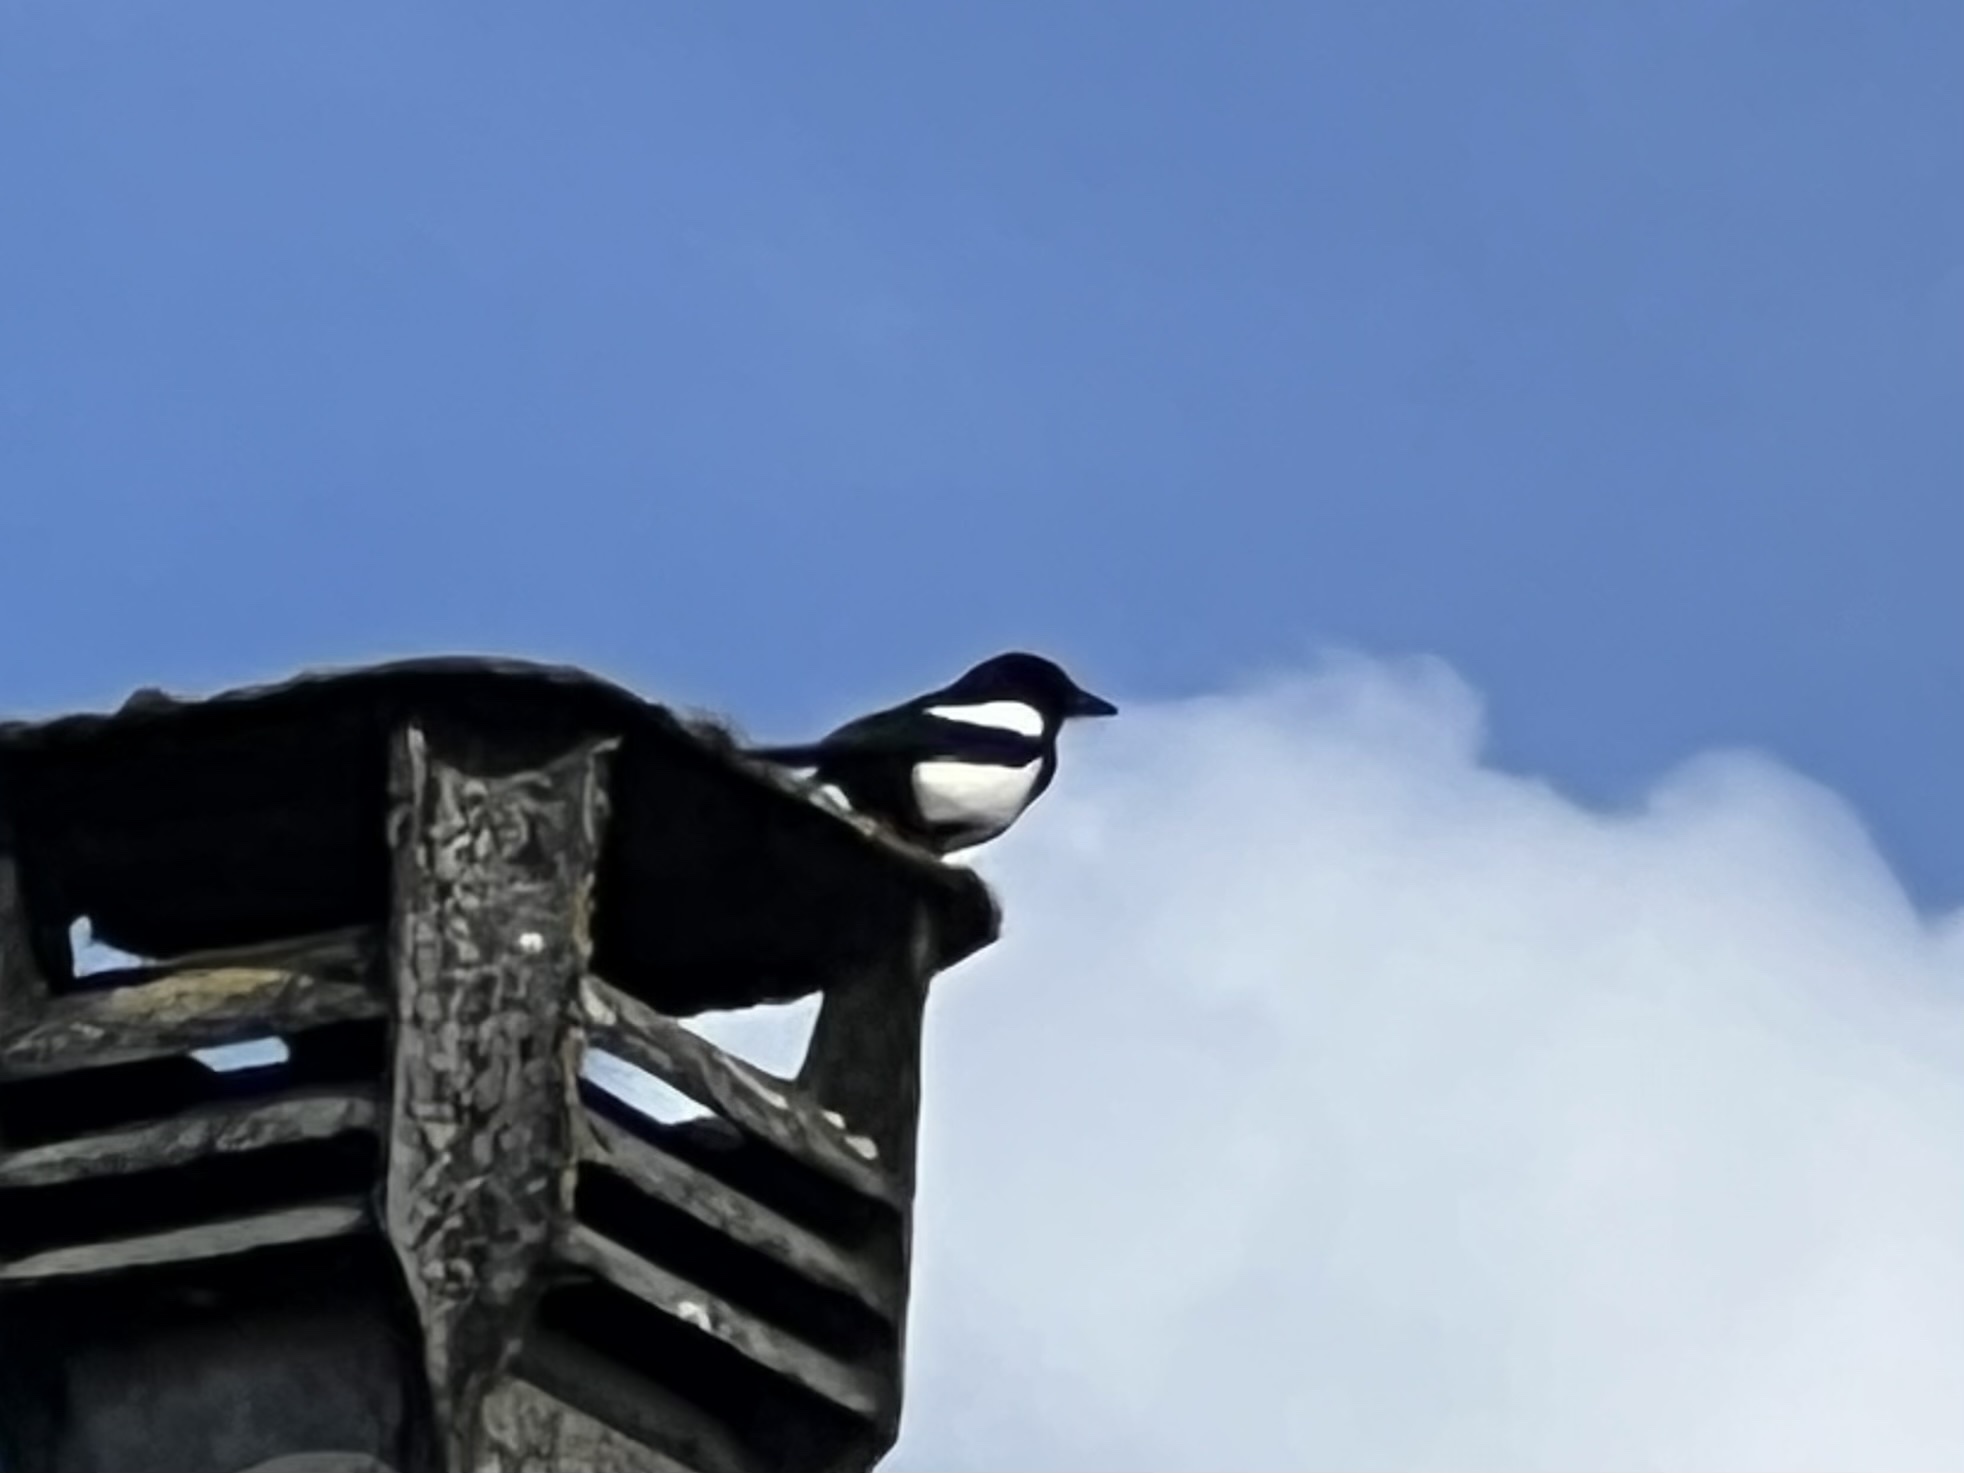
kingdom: Animalia
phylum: Chordata
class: Aves
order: Passeriformes
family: Corvidae
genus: Pica
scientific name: Pica pica
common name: Eurasian magpie
